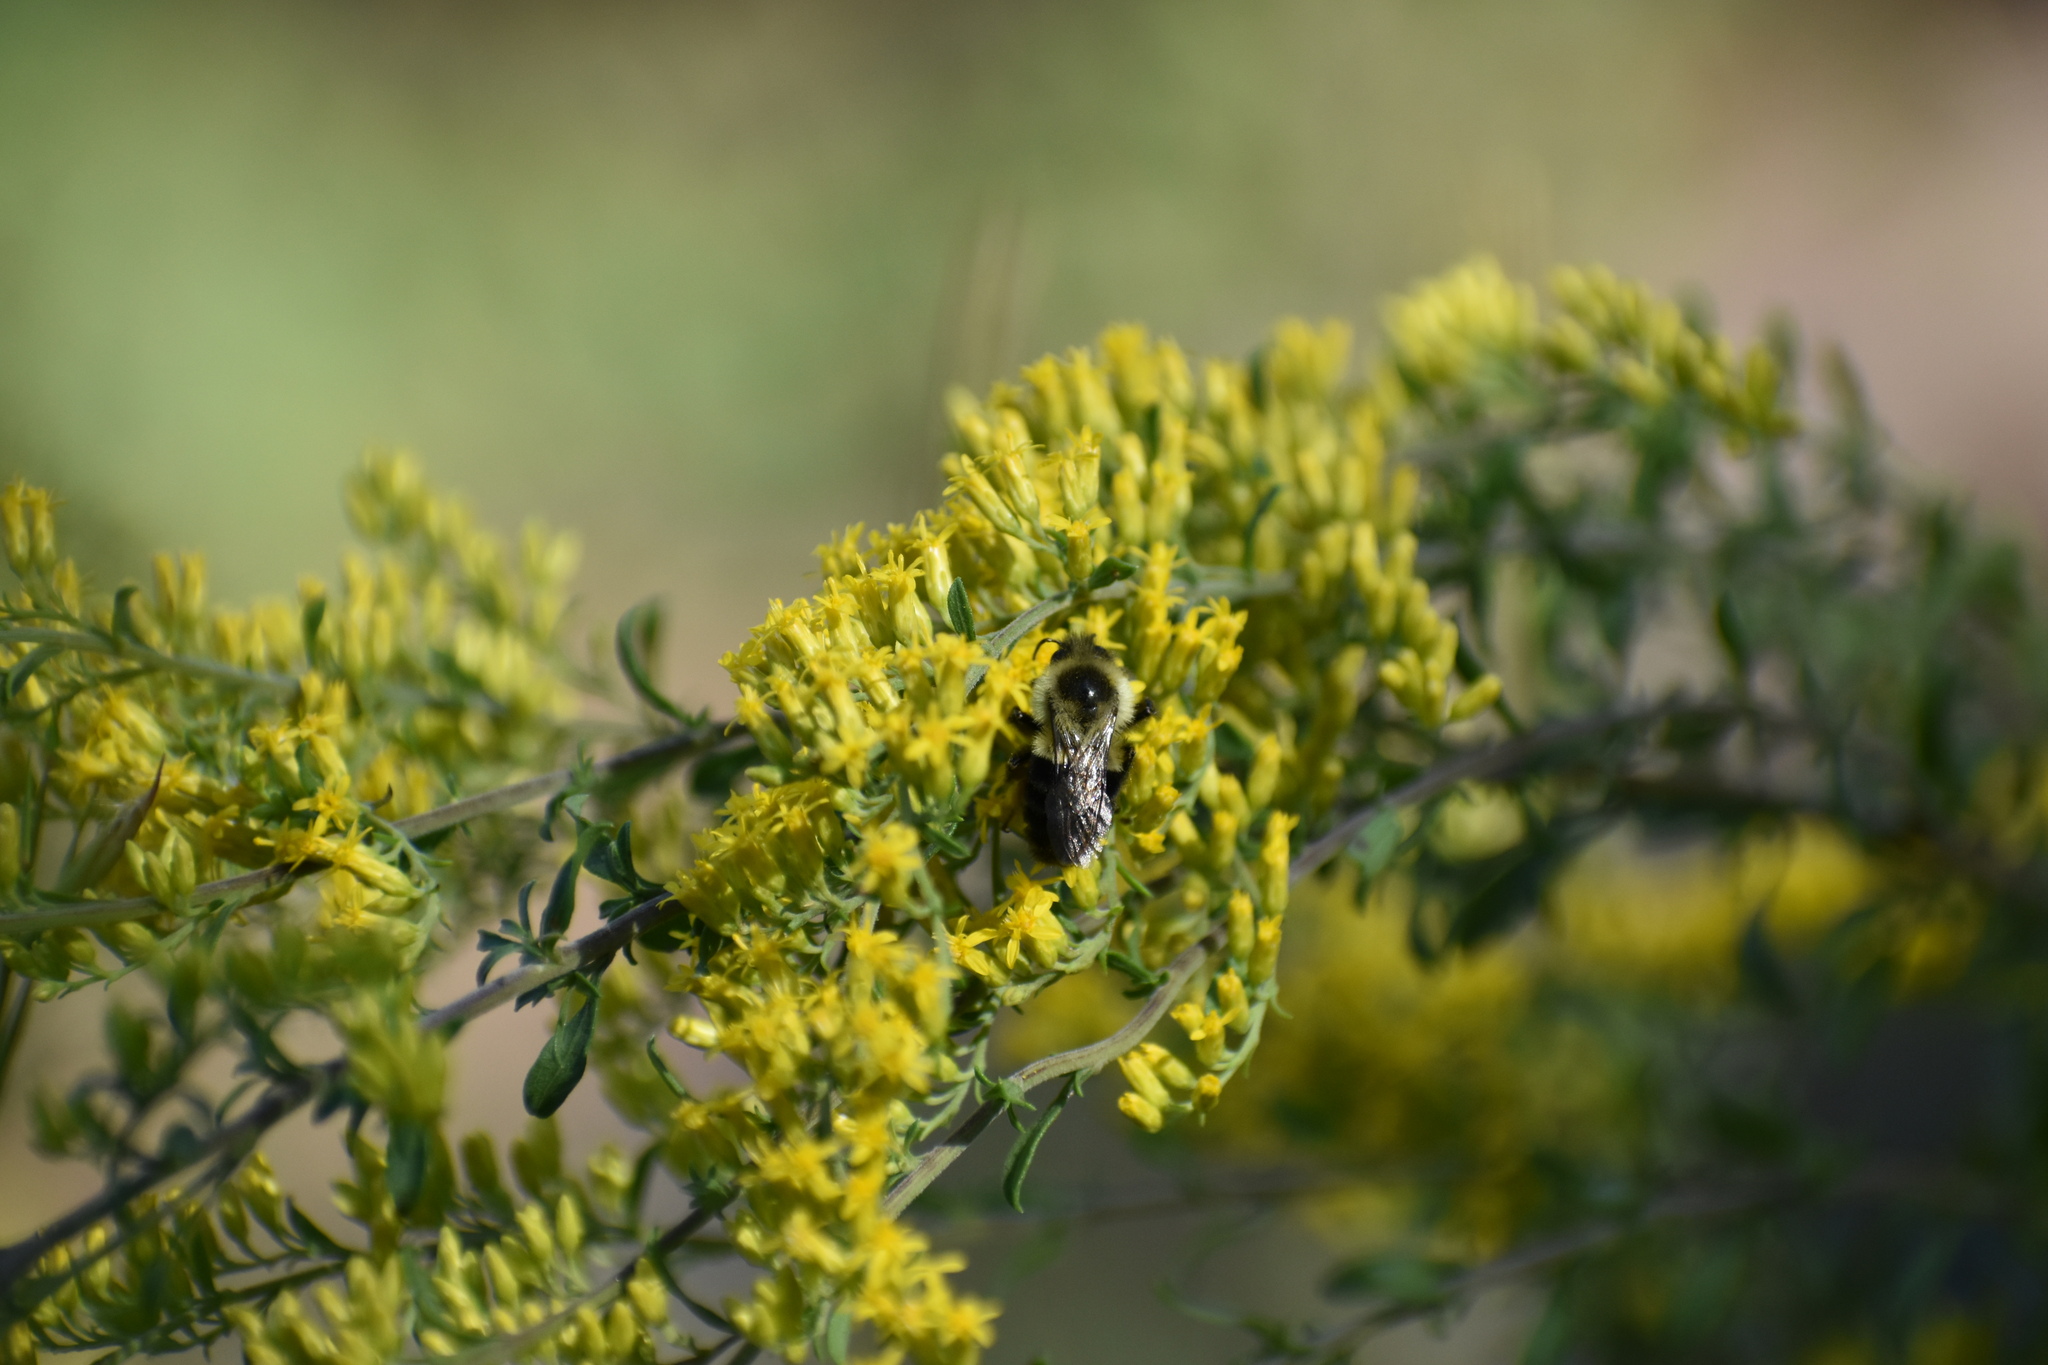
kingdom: Animalia
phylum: Arthropoda
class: Insecta
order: Hymenoptera
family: Apidae
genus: Bombus
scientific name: Bombus impatiens
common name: Common eastern bumble bee
